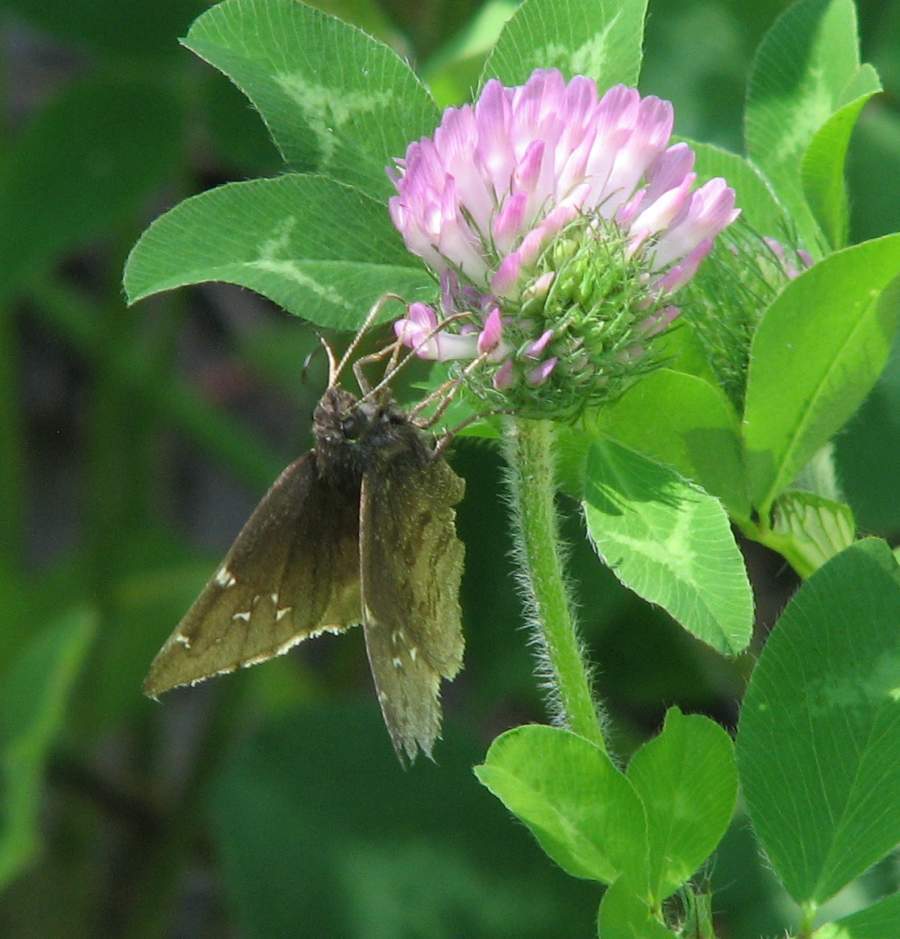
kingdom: Animalia
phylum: Arthropoda
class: Insecta
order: Lepidoptera
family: Hesperiidae
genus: Thorybes
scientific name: Thorybes pylades
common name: Northern cloudywing
